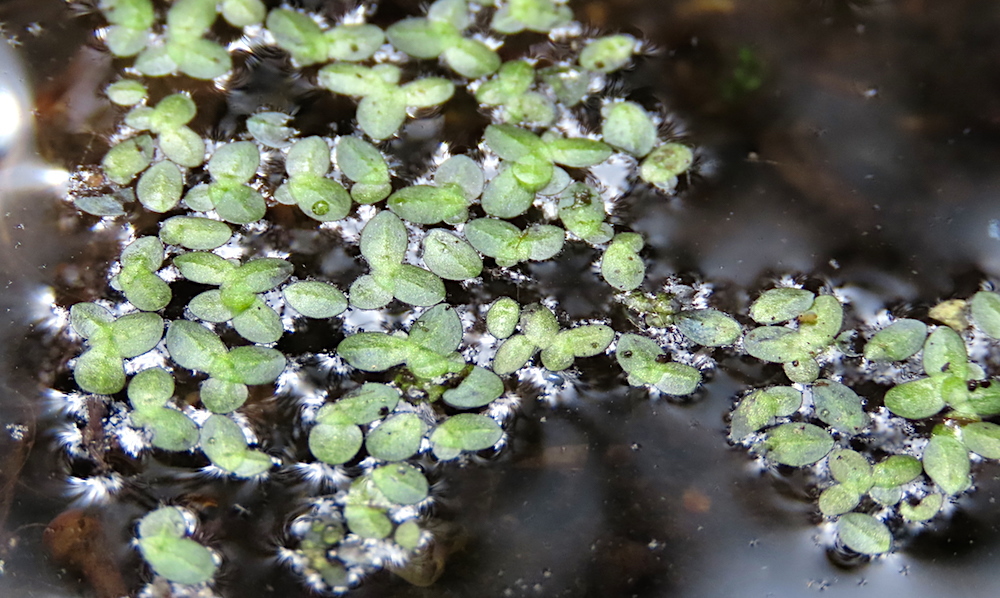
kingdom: Plantae
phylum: Tracheophyta
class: Liliopsida
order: Alismatales
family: Araceae
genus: Lemna
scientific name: Lemna minor
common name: Common duckweed
